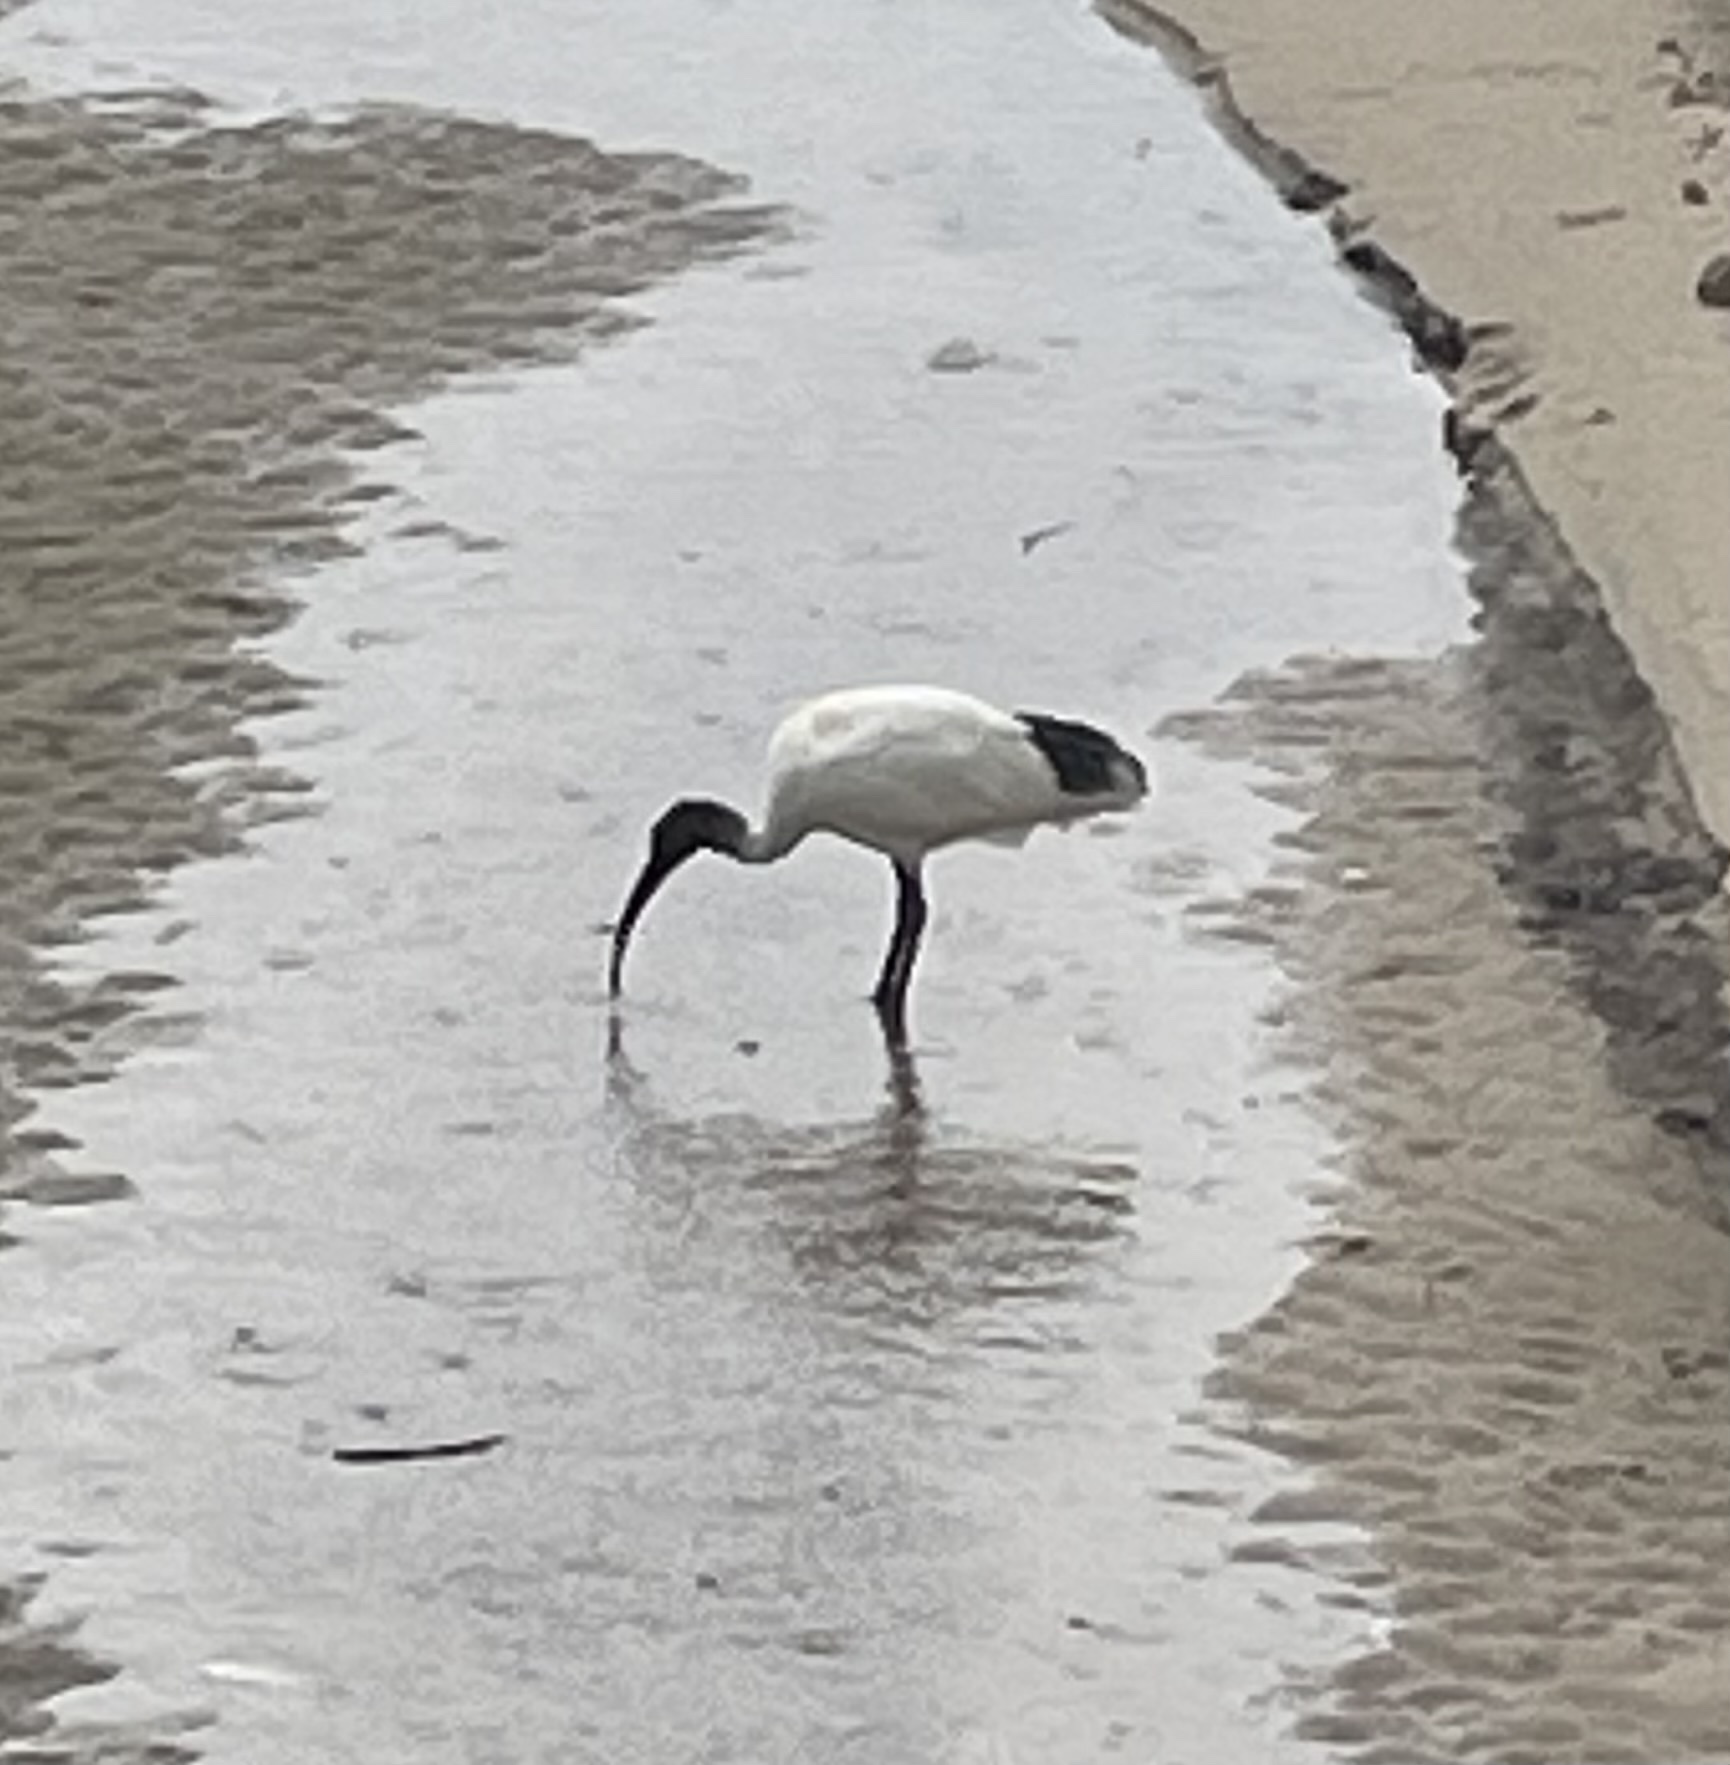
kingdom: Animalia
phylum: Chordata
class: Aves
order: Pelecaniformes
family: Threskiornithidae
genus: Threskiornis
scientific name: Threskiornis molucca
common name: Australian white ibis
